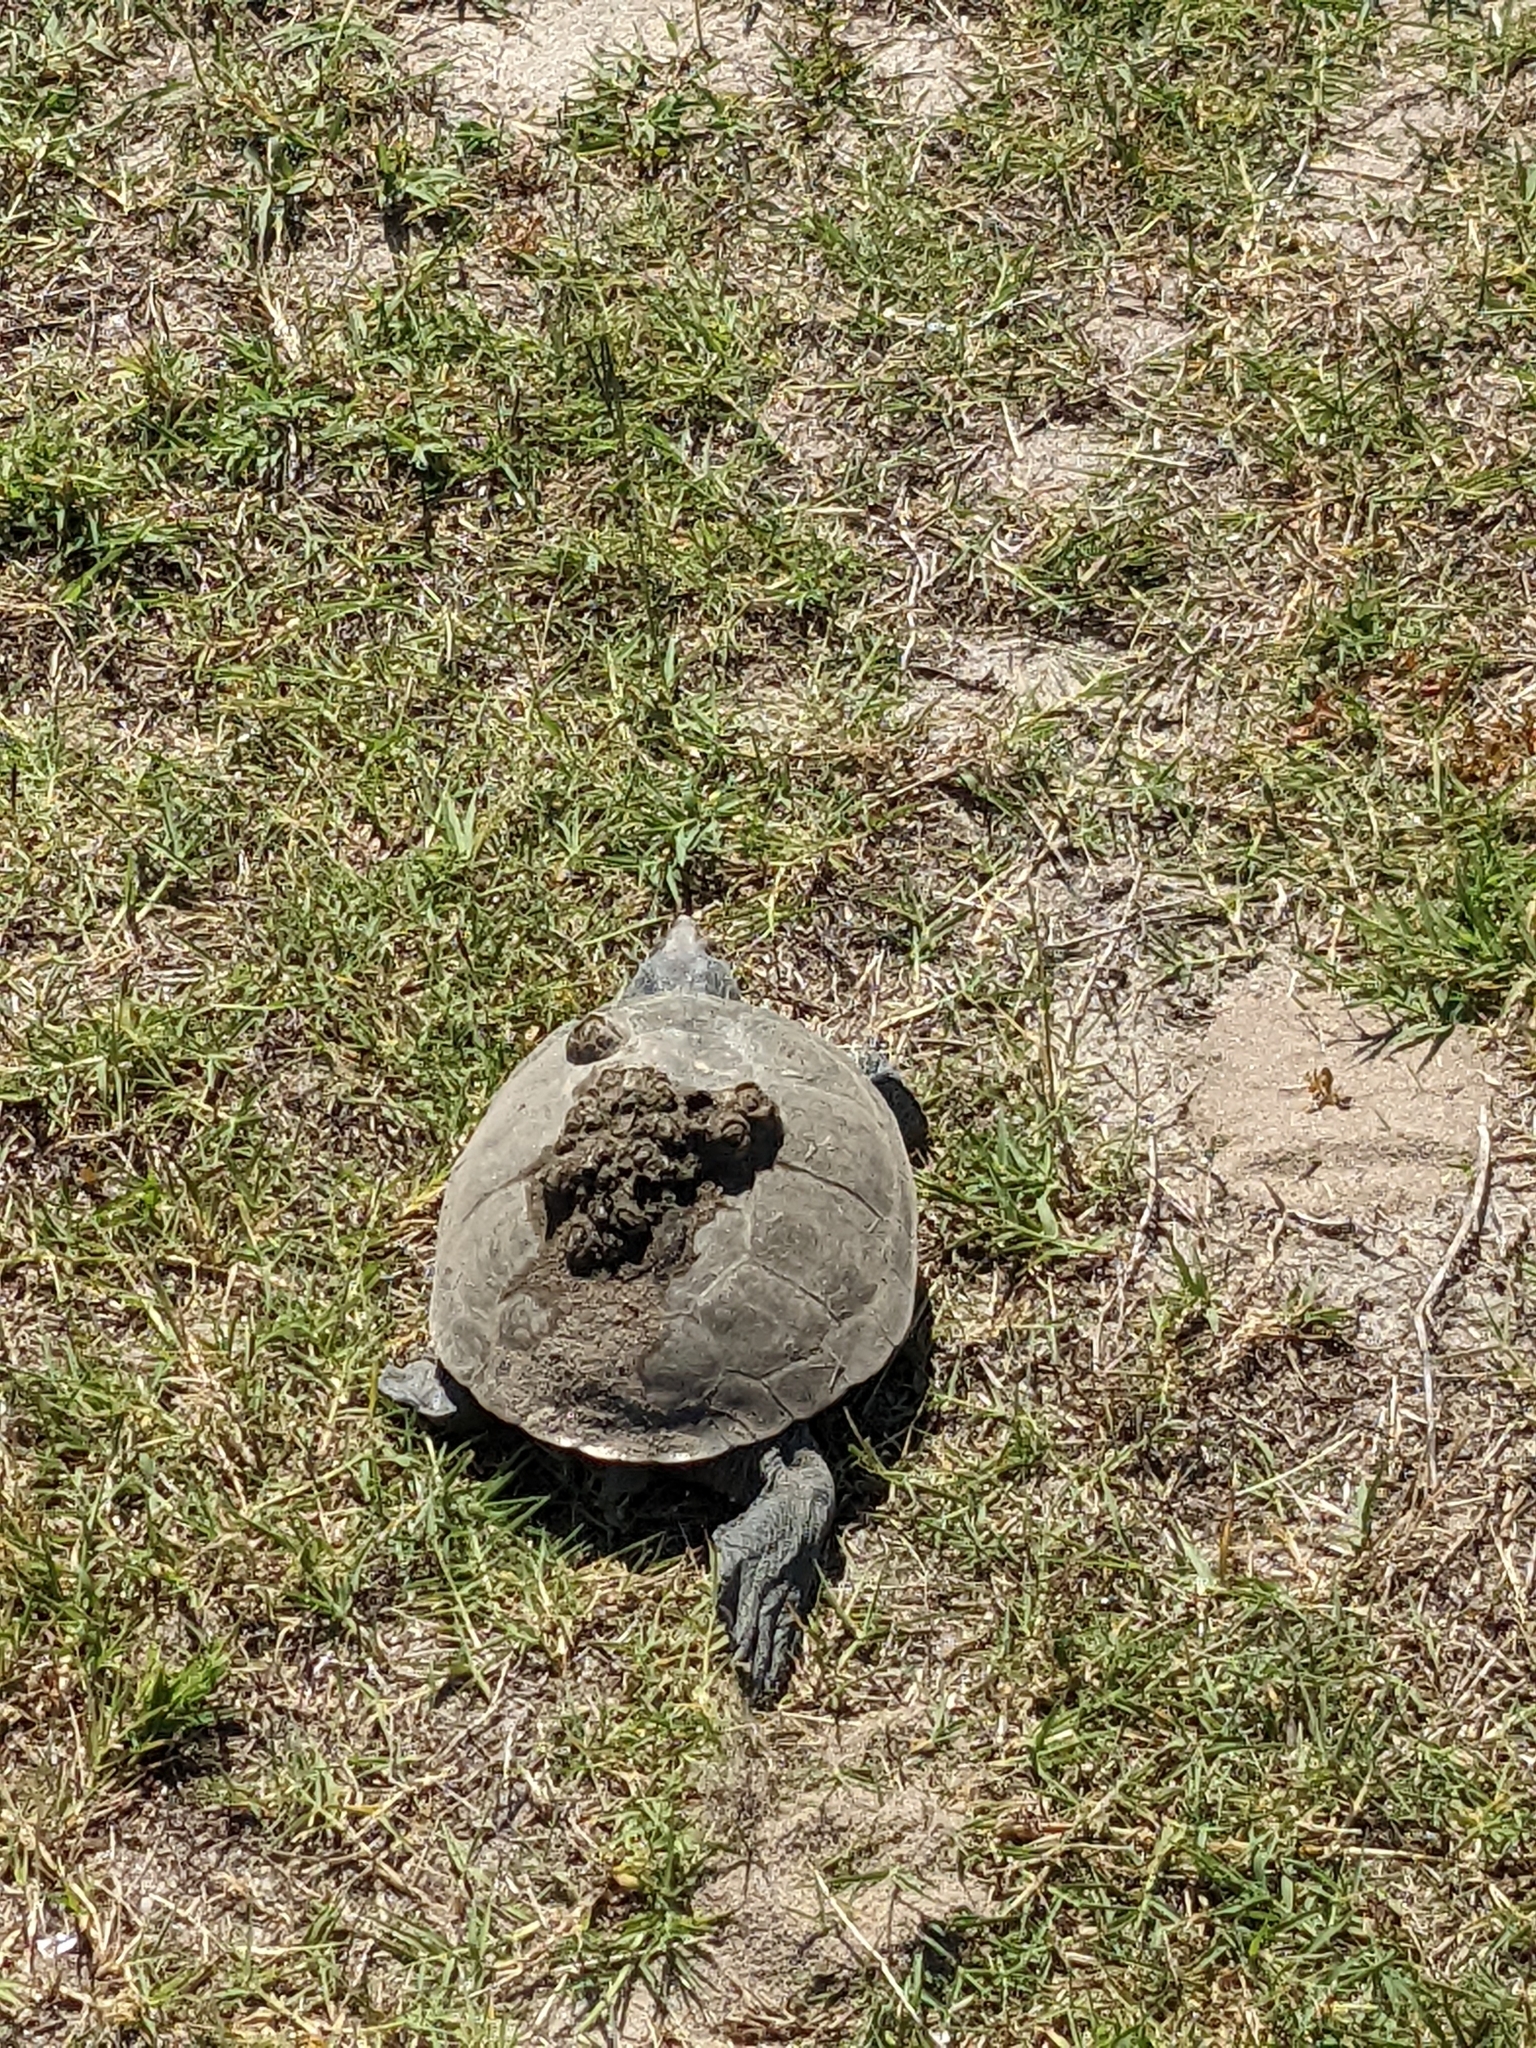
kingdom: Animalia
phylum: Chordata
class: Testudines
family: Emydidae
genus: Malaclemys
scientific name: Malaclemys terrapin
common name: Diamondback terrapin
